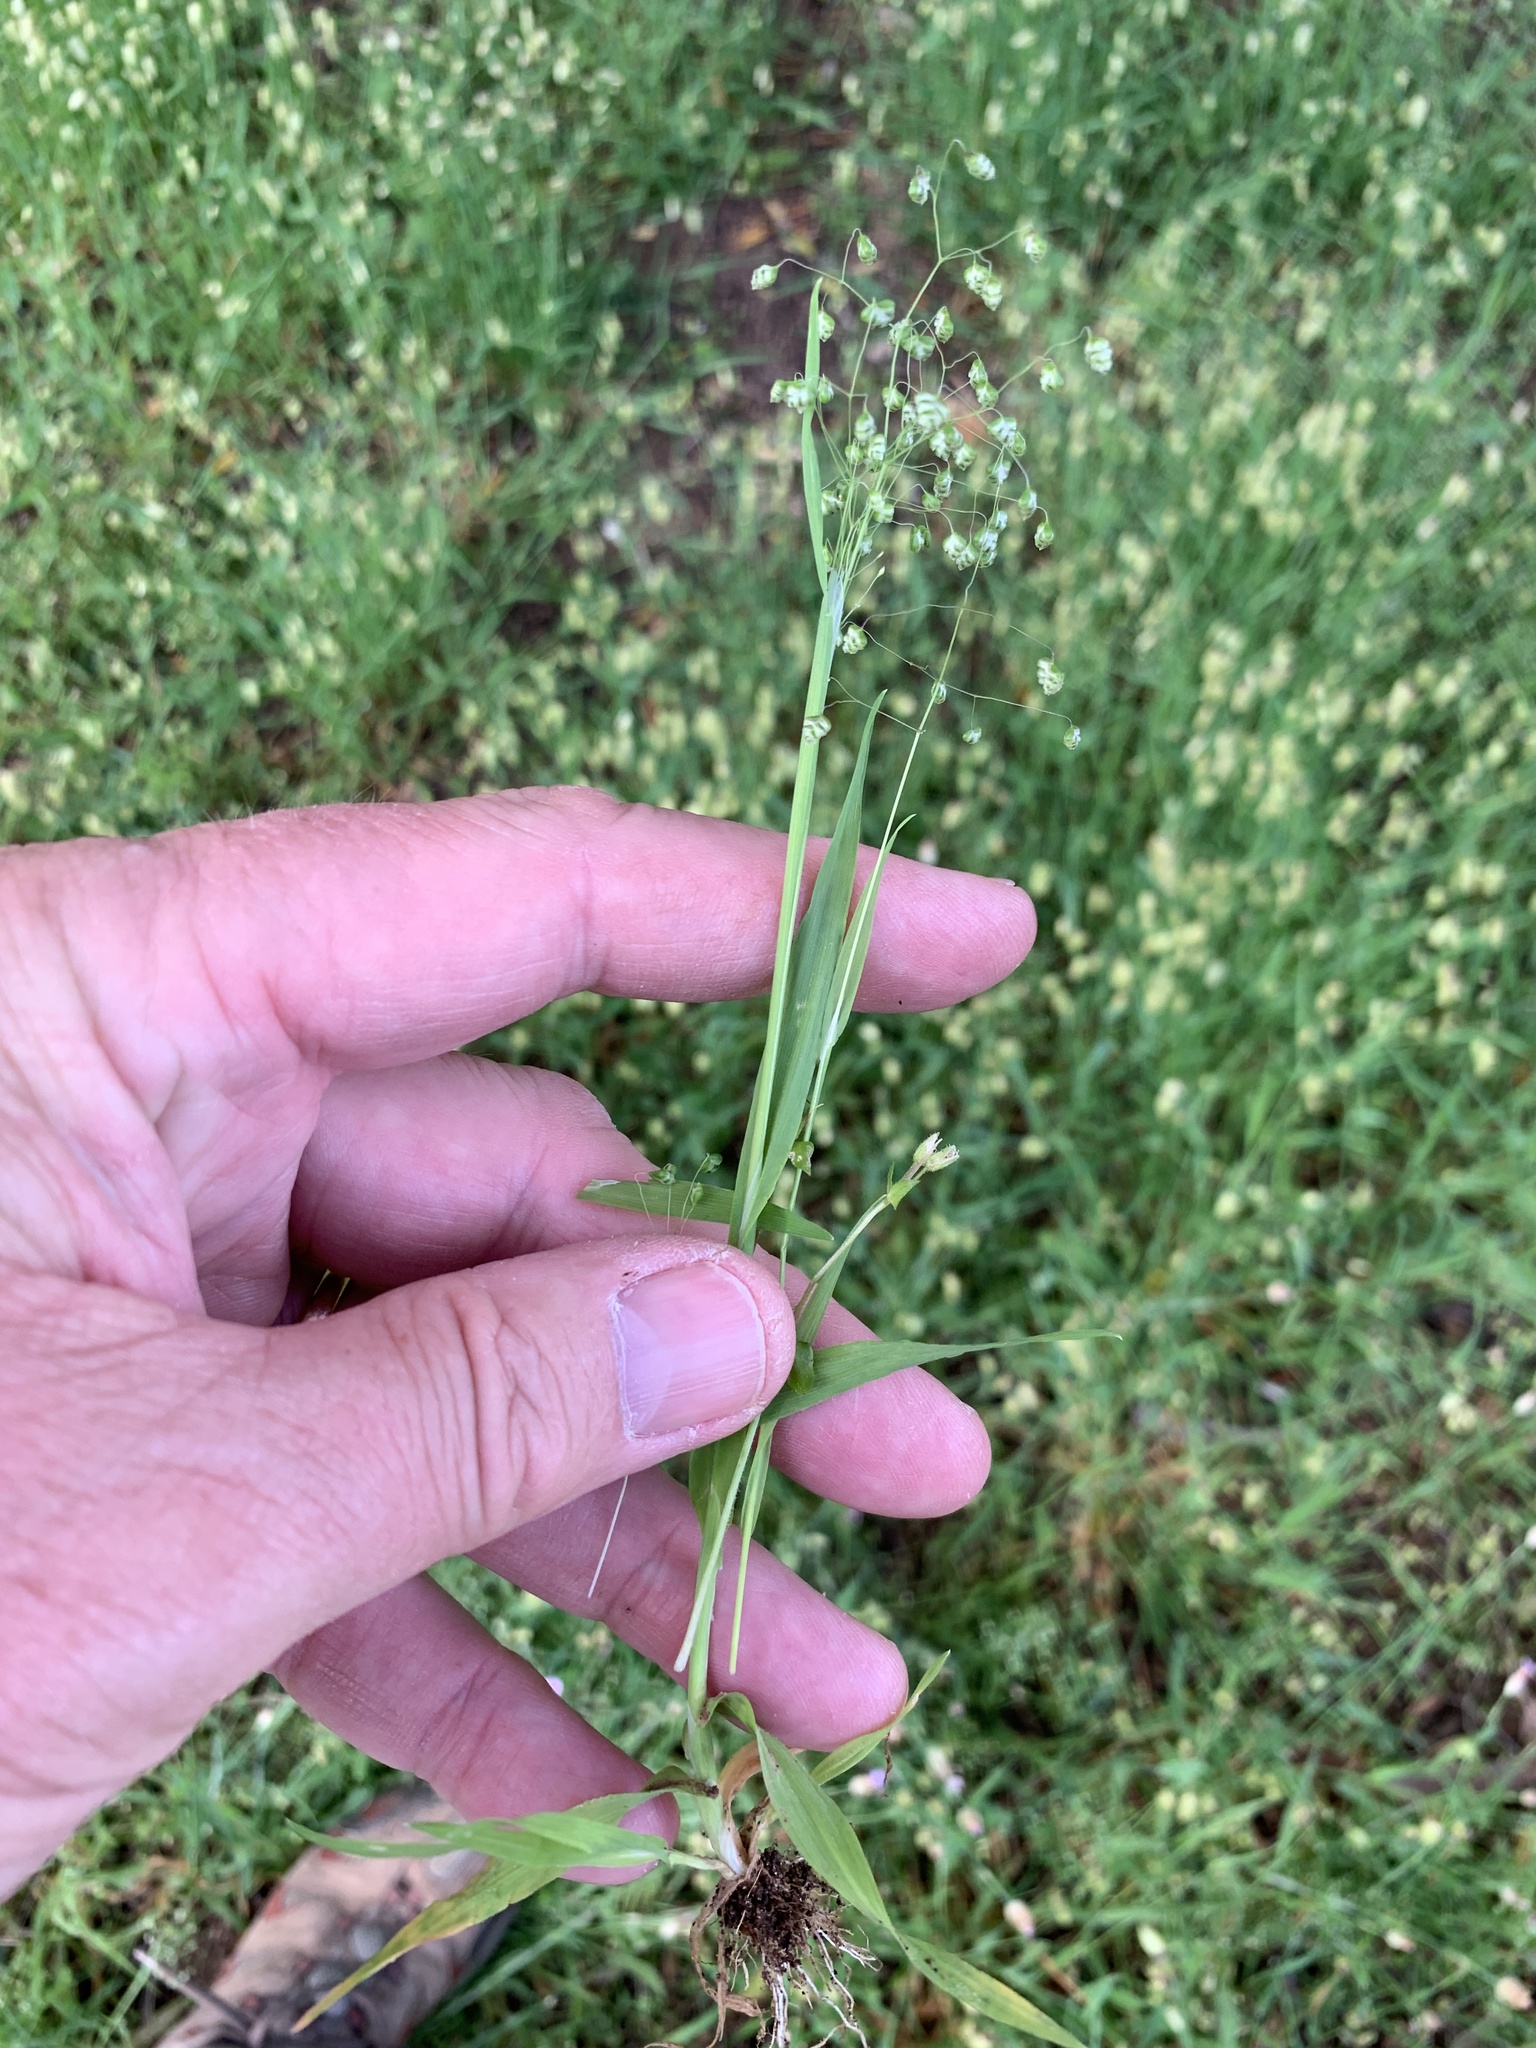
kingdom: Plantae
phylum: Tracheophyta
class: Liliopsida
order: Poales
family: Poaceae
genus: Briza
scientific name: Briza minor
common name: Lesser quaking-grass
